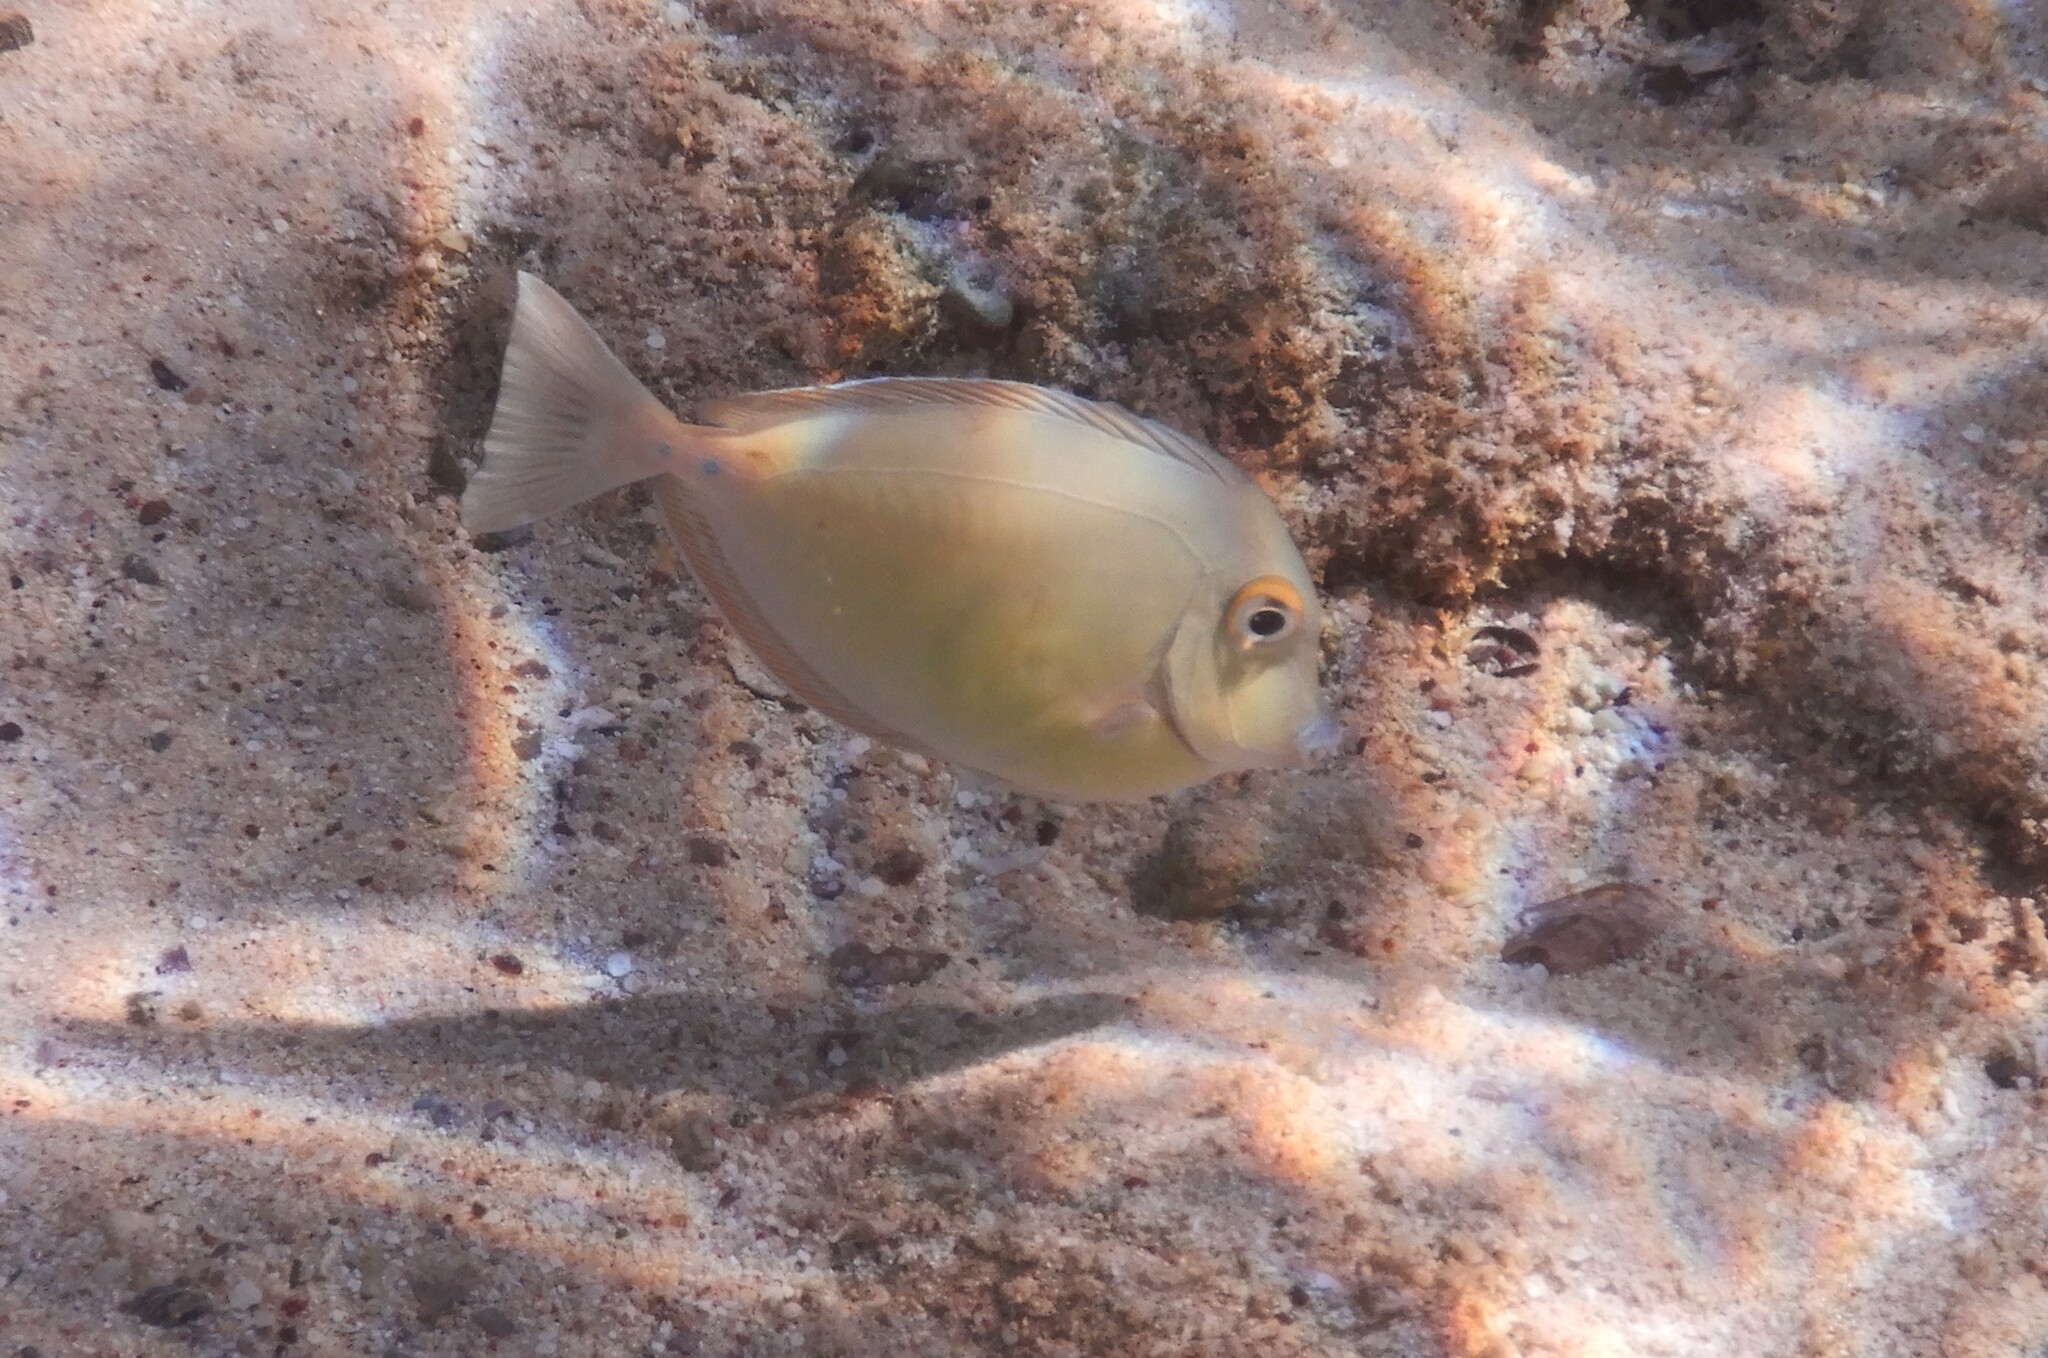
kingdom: Animalia
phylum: Chordata
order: Perciformes
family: Acanthuridae
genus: Naso
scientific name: Naso unicornis
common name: Bluespine unicornfish
